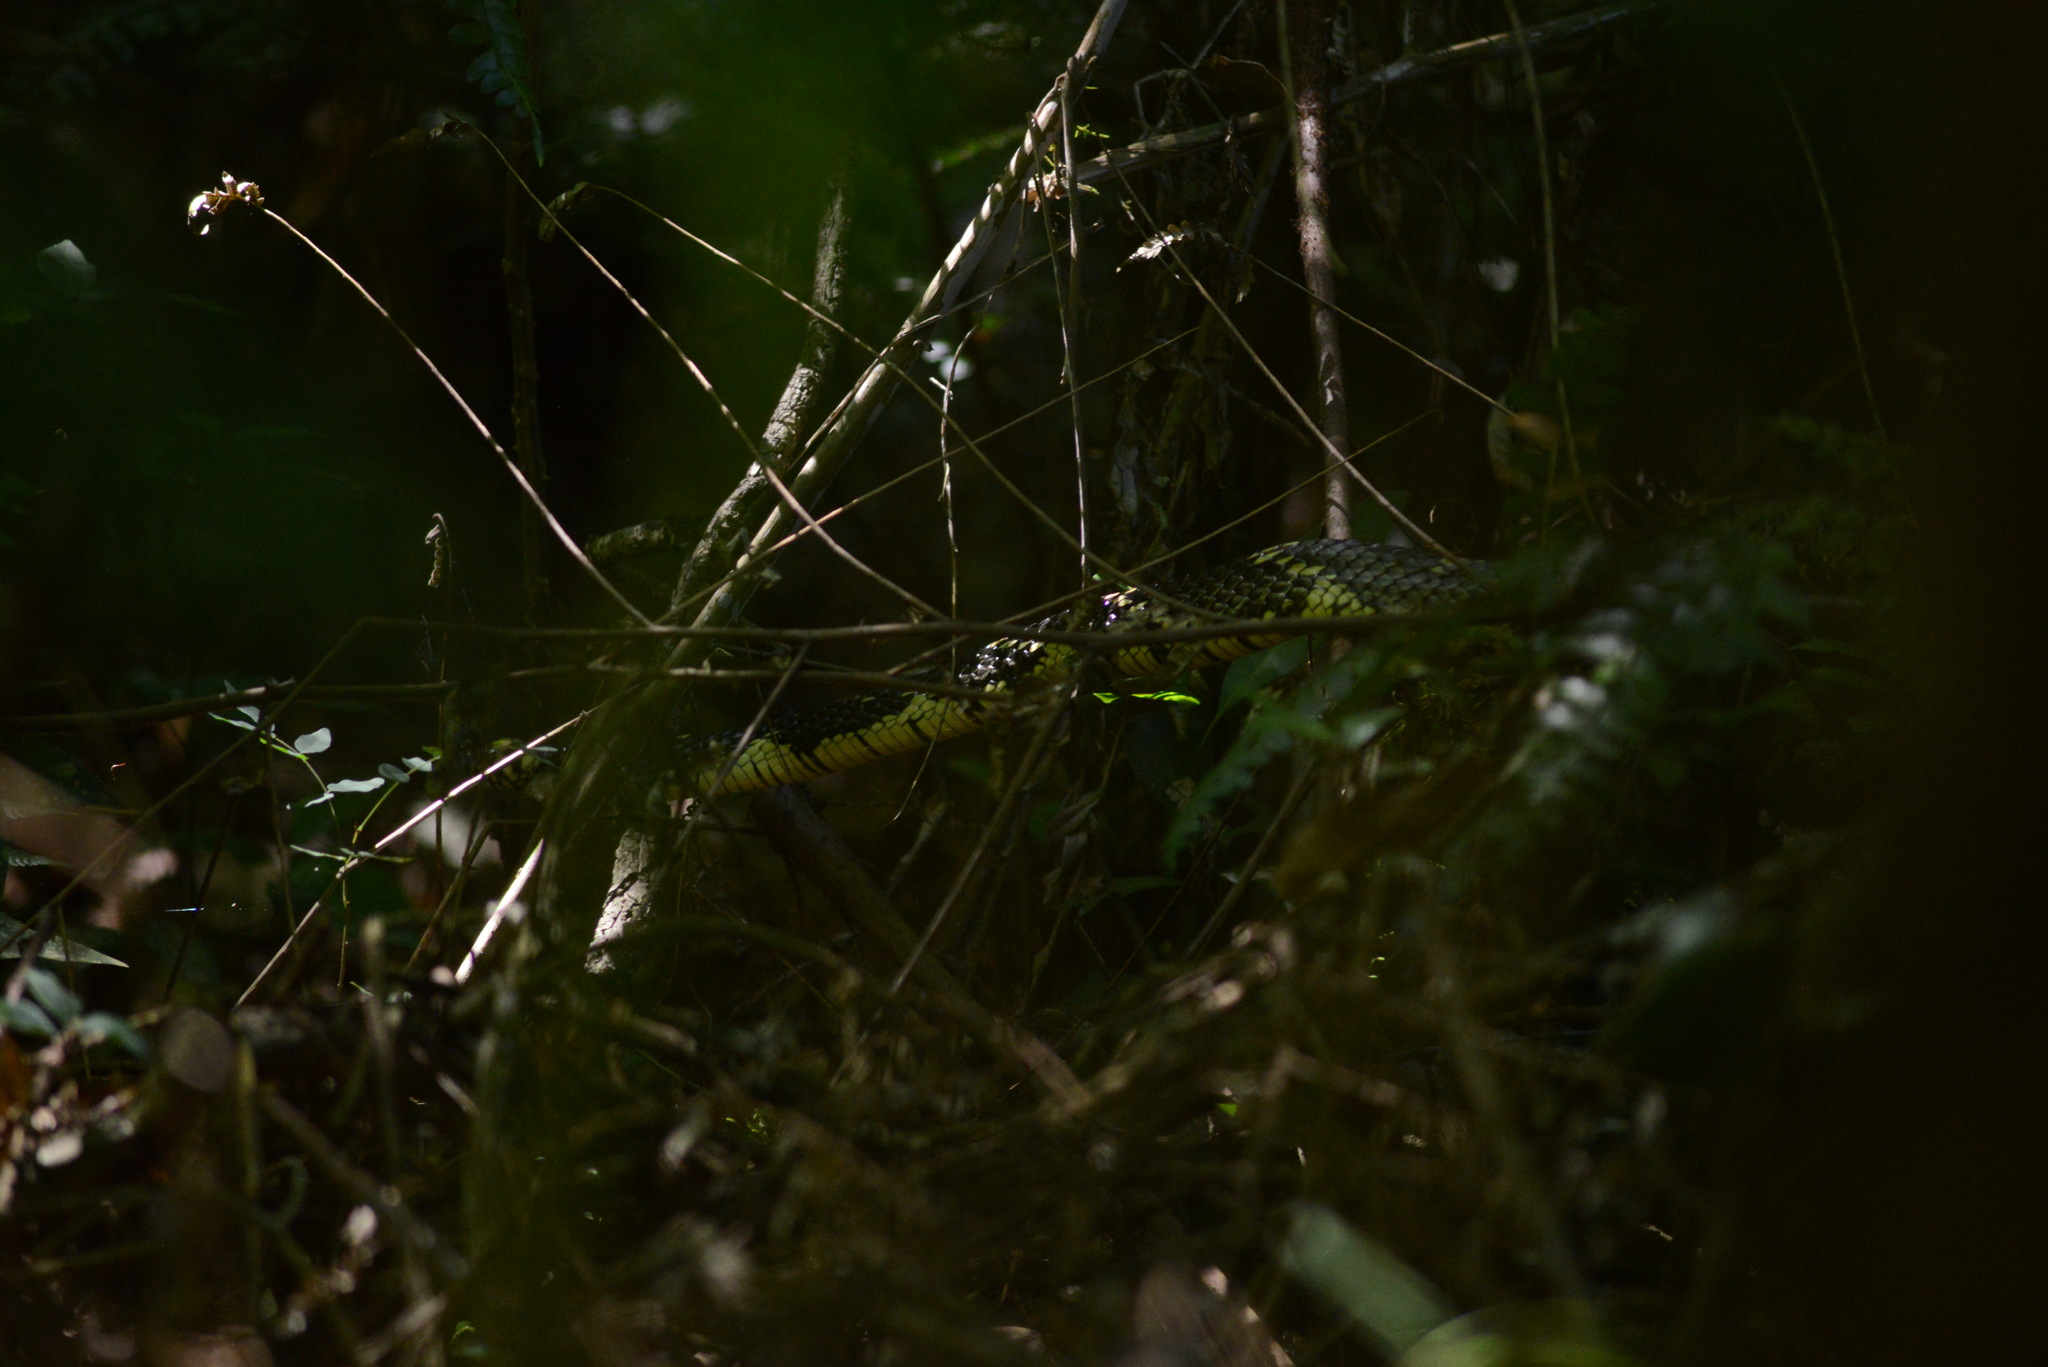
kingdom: Animalia
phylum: Chordata
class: Squamata
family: Colubridae
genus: Spilotes
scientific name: Spilotes pullatus
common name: Chicken snake
